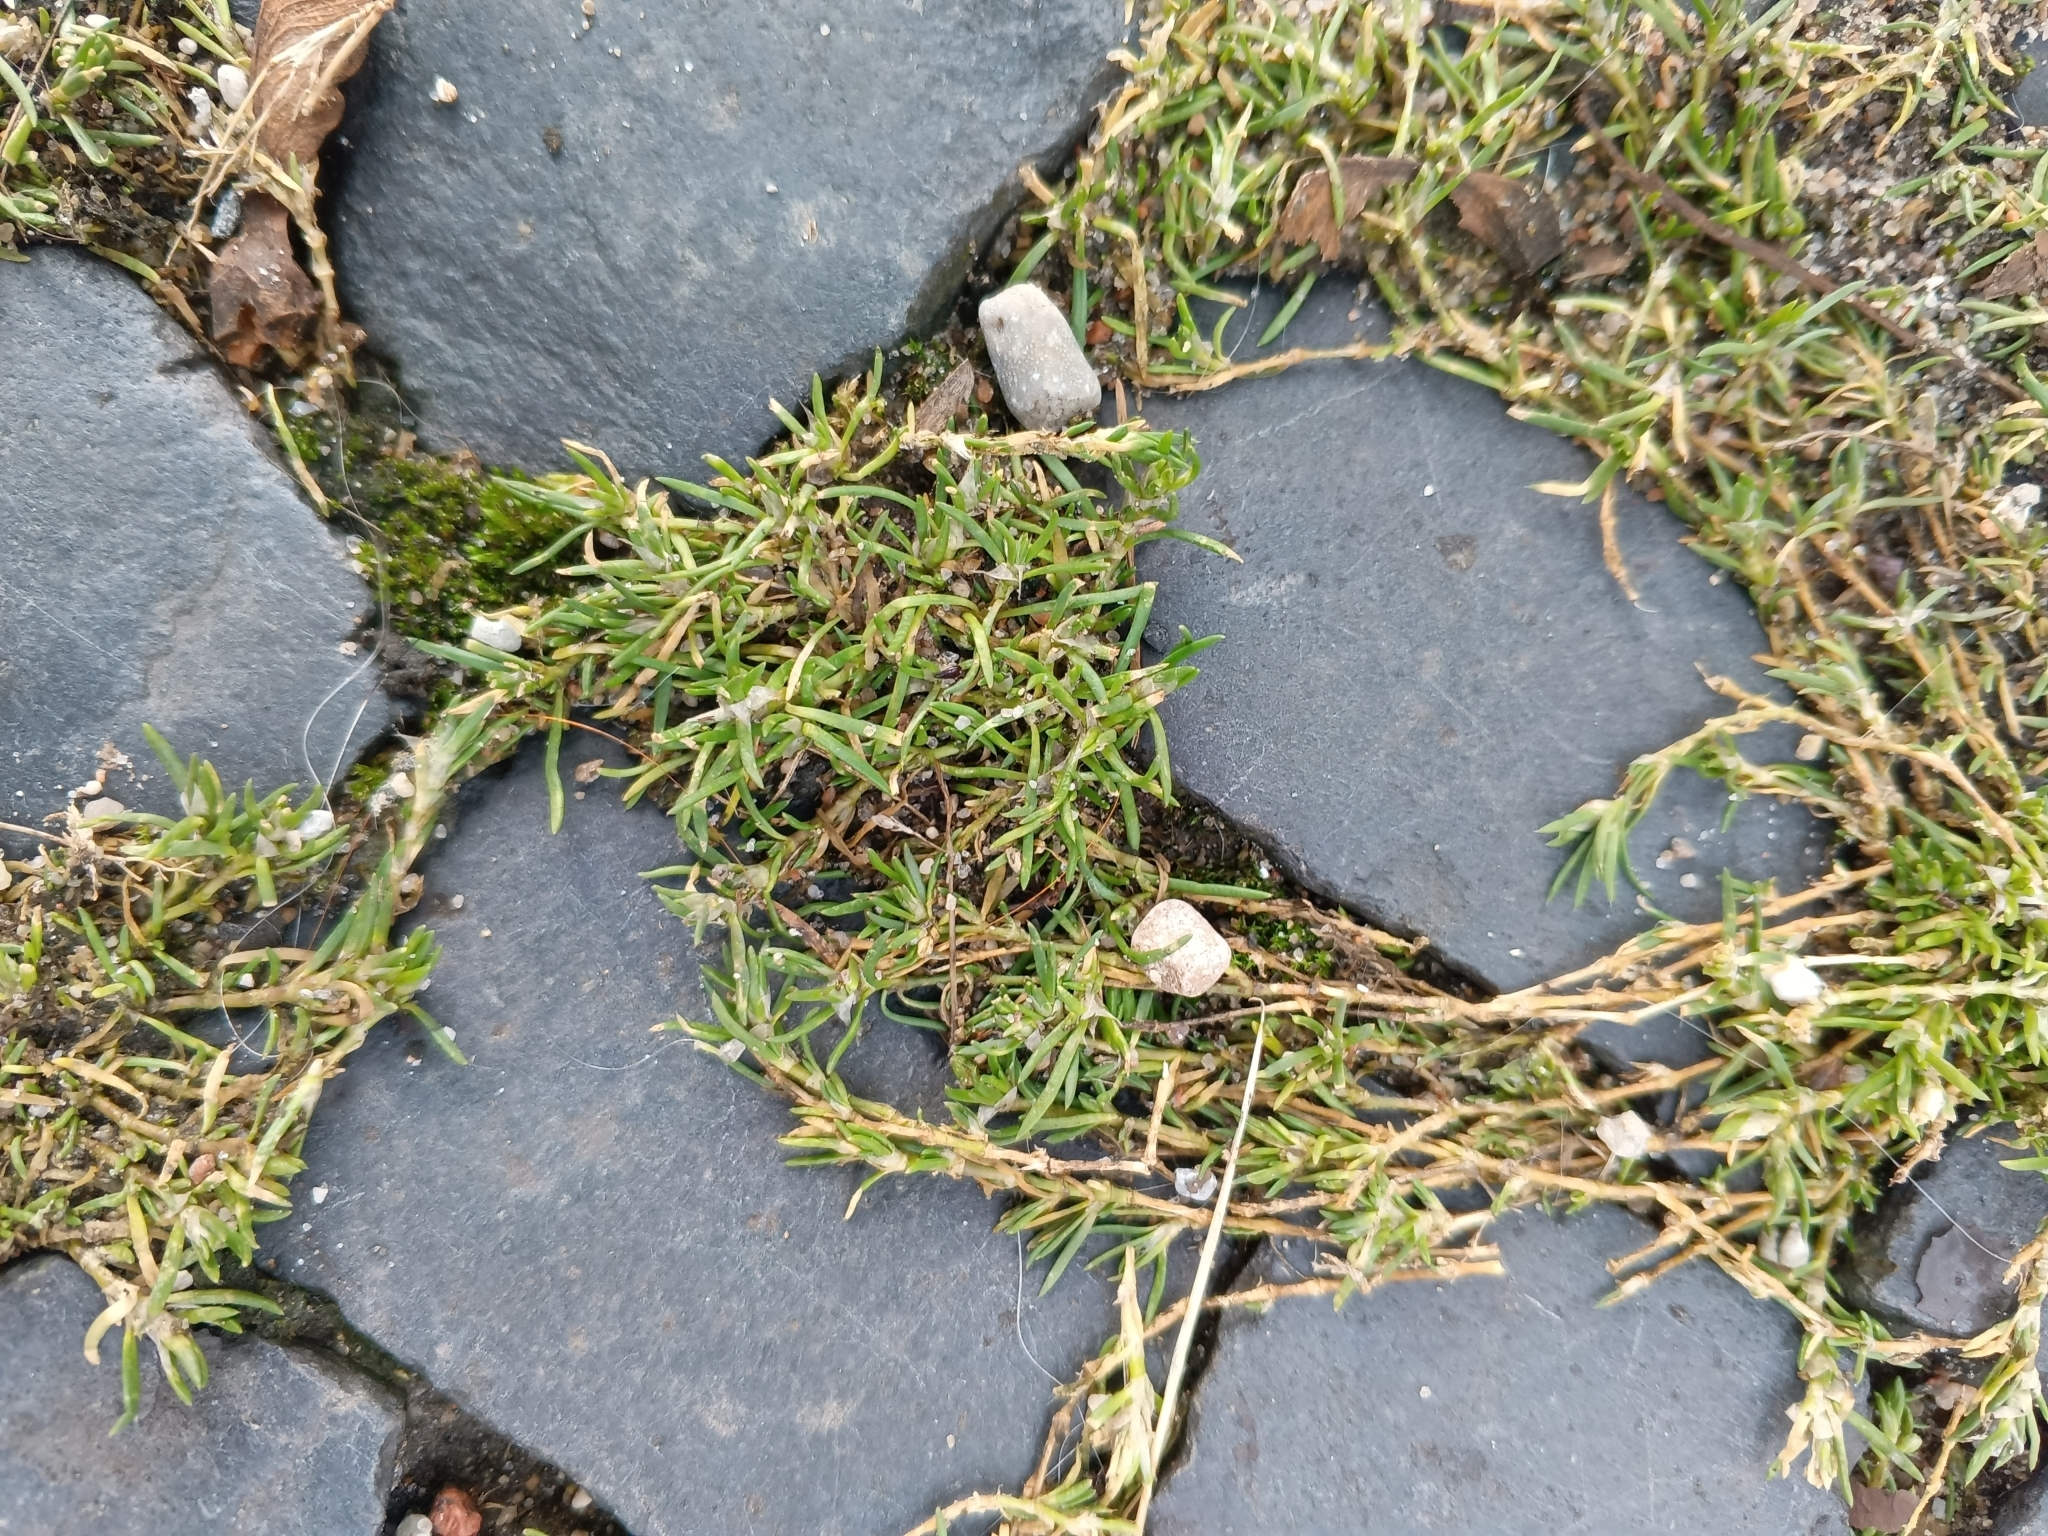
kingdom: Plantae
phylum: Tracheophyta
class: Magnoliopsida
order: Caryophyllales
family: Caryophyllaceae
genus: Sagina
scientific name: Sagina procumbens
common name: Procumbent pearlwort
